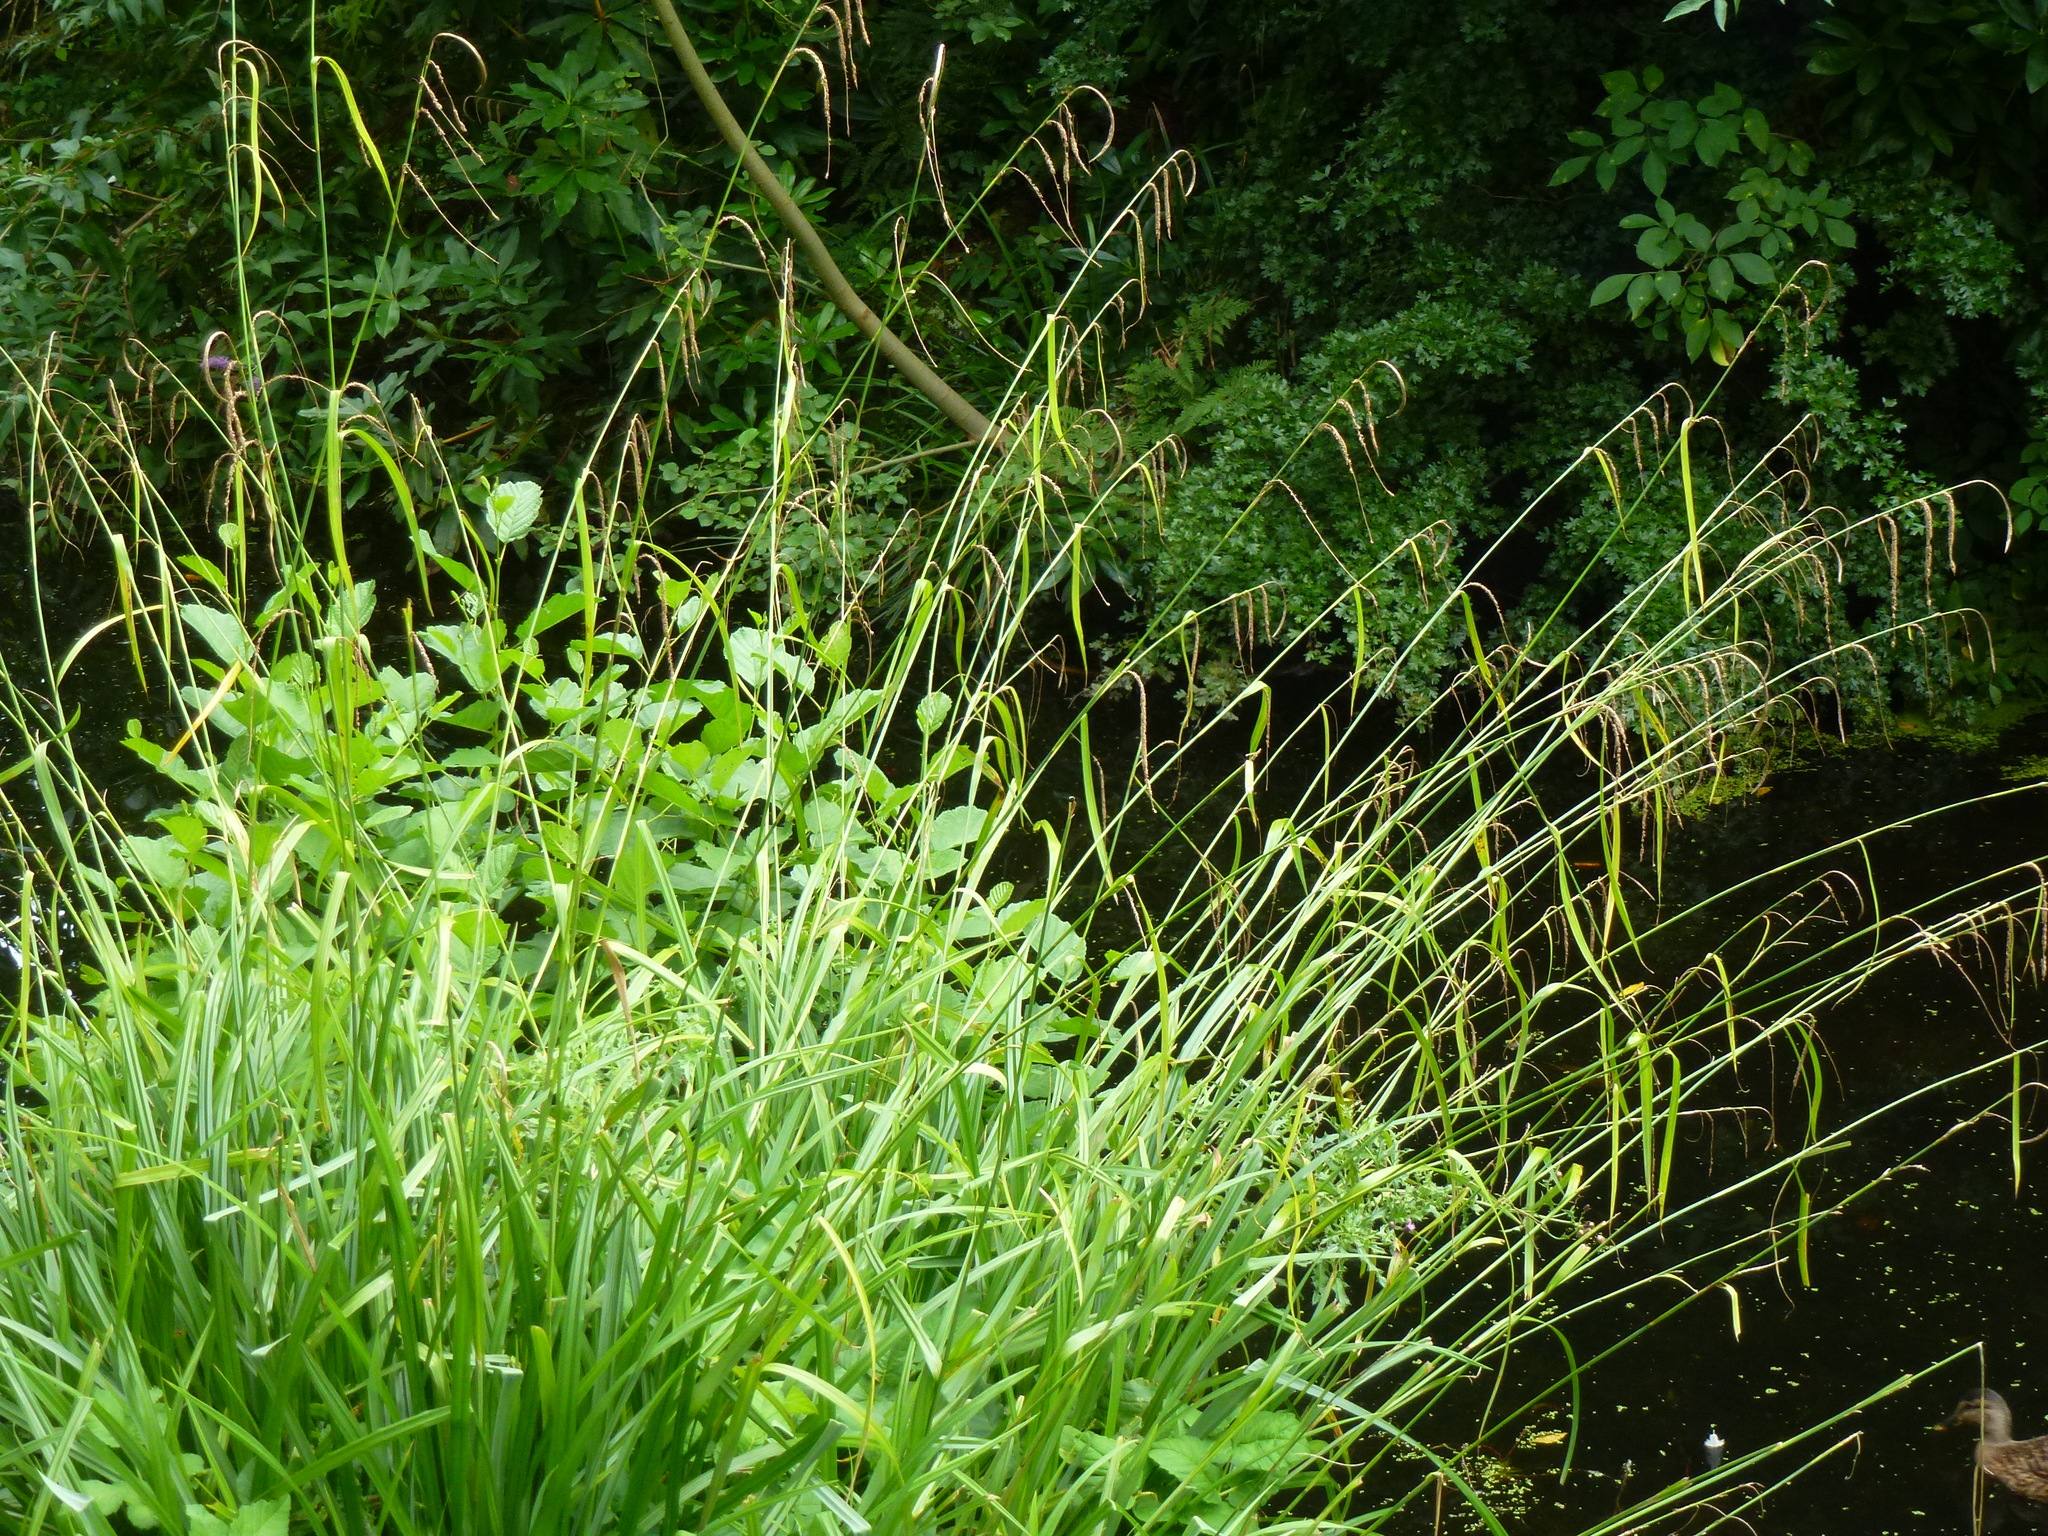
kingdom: Plantae
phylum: Tracheophyta
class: Liliopsida
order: Poales
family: Cyperaceae
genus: Carex
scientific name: Carex pendula
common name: Pendulous sedge
